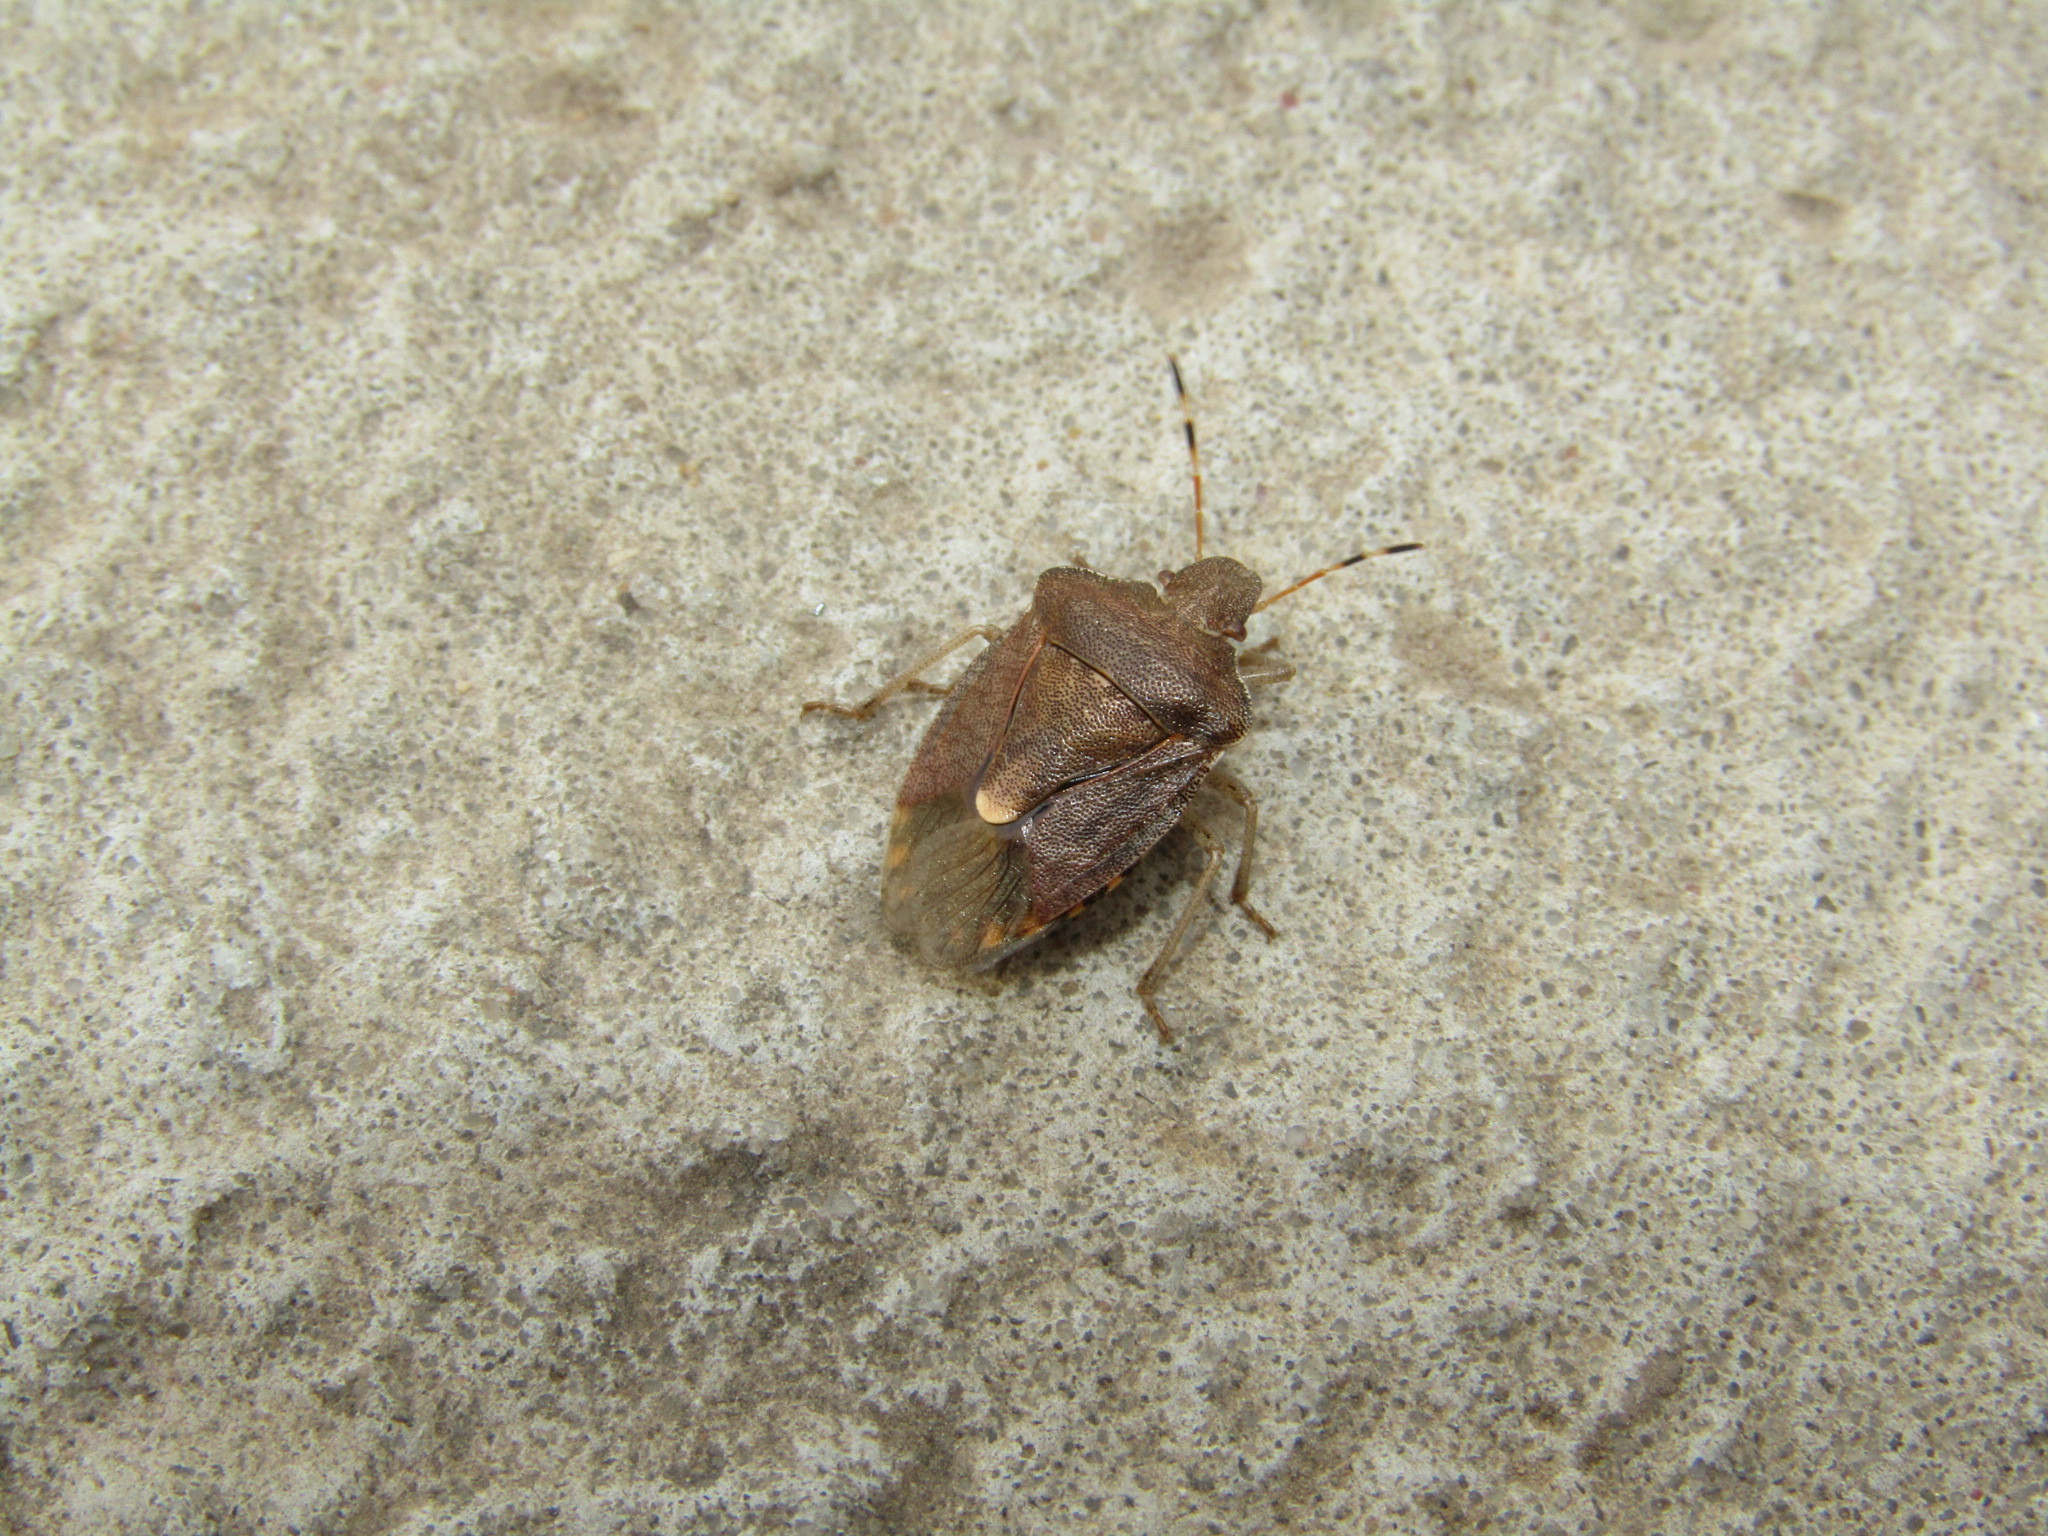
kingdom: Animalia
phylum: Arthropoda
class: Insecta
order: Hemiptera
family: Pentatomidae
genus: Holcostethus
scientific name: Holcostethus strictus
